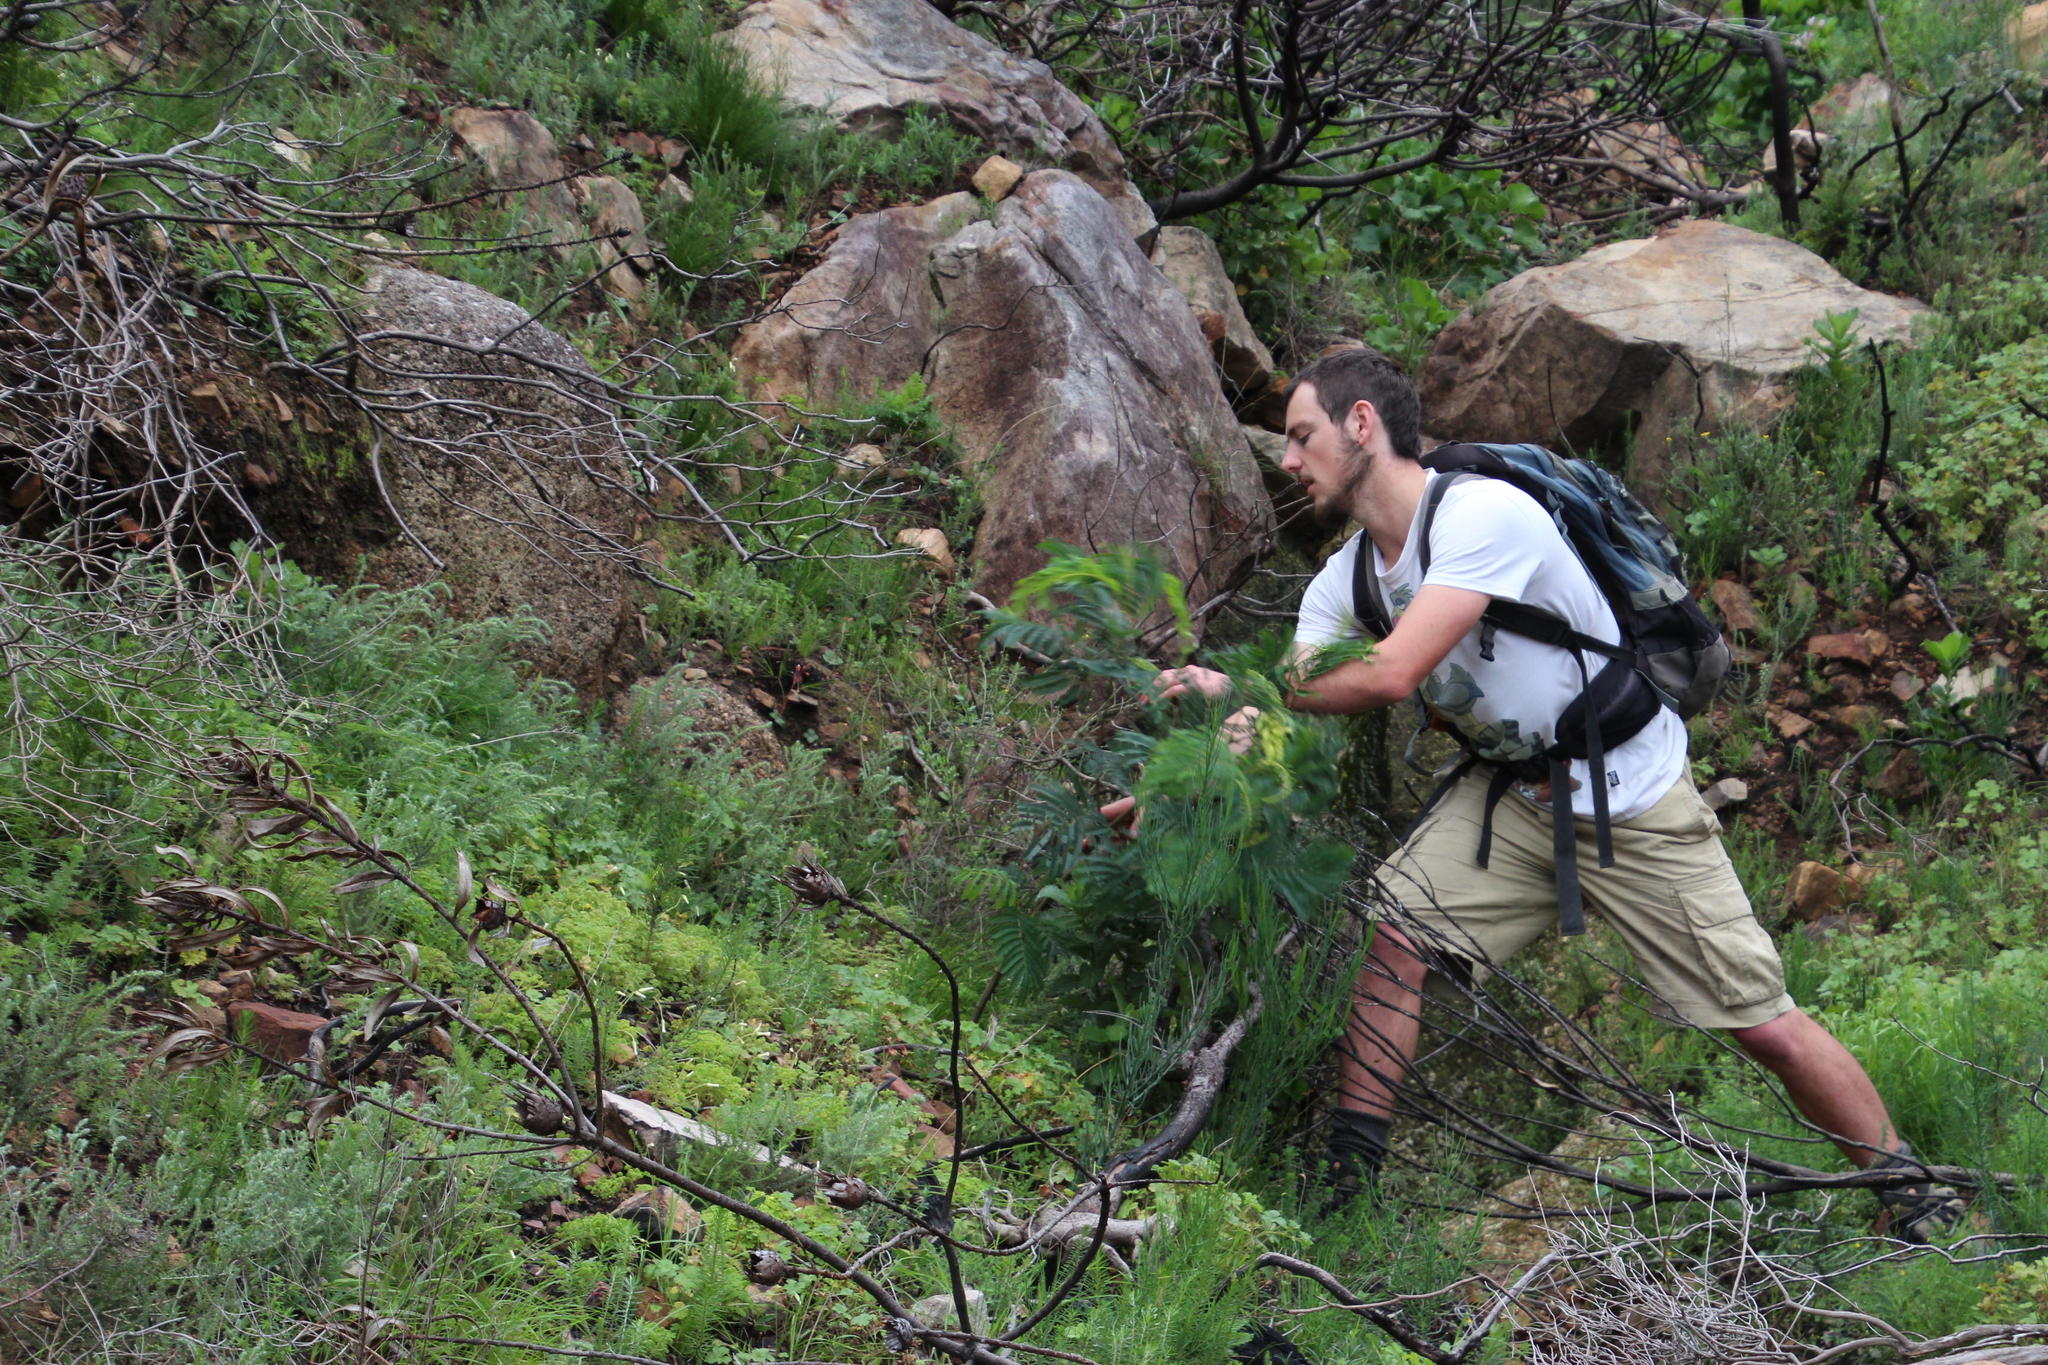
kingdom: Plantae
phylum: Tracheophyta
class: Magnoliopsida
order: Fabales
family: Fabaceae
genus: Paraserianthes
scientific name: Paraserianthes lophantha
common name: Plume albizia
